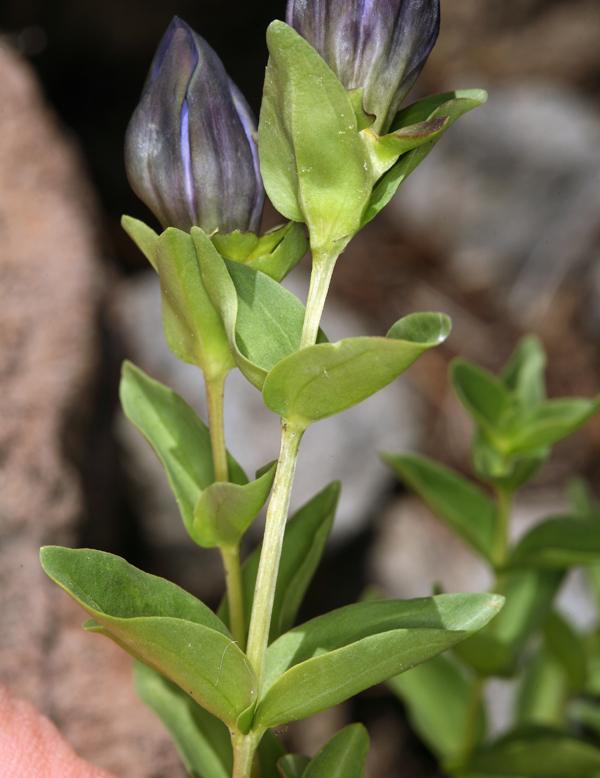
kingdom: Plantae
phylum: Tracheophyta
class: Magnoliopsida
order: Gentianales
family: Gentianaceae
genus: Gentiana
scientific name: Gentiana calycosa
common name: Rainier pleated gentian
